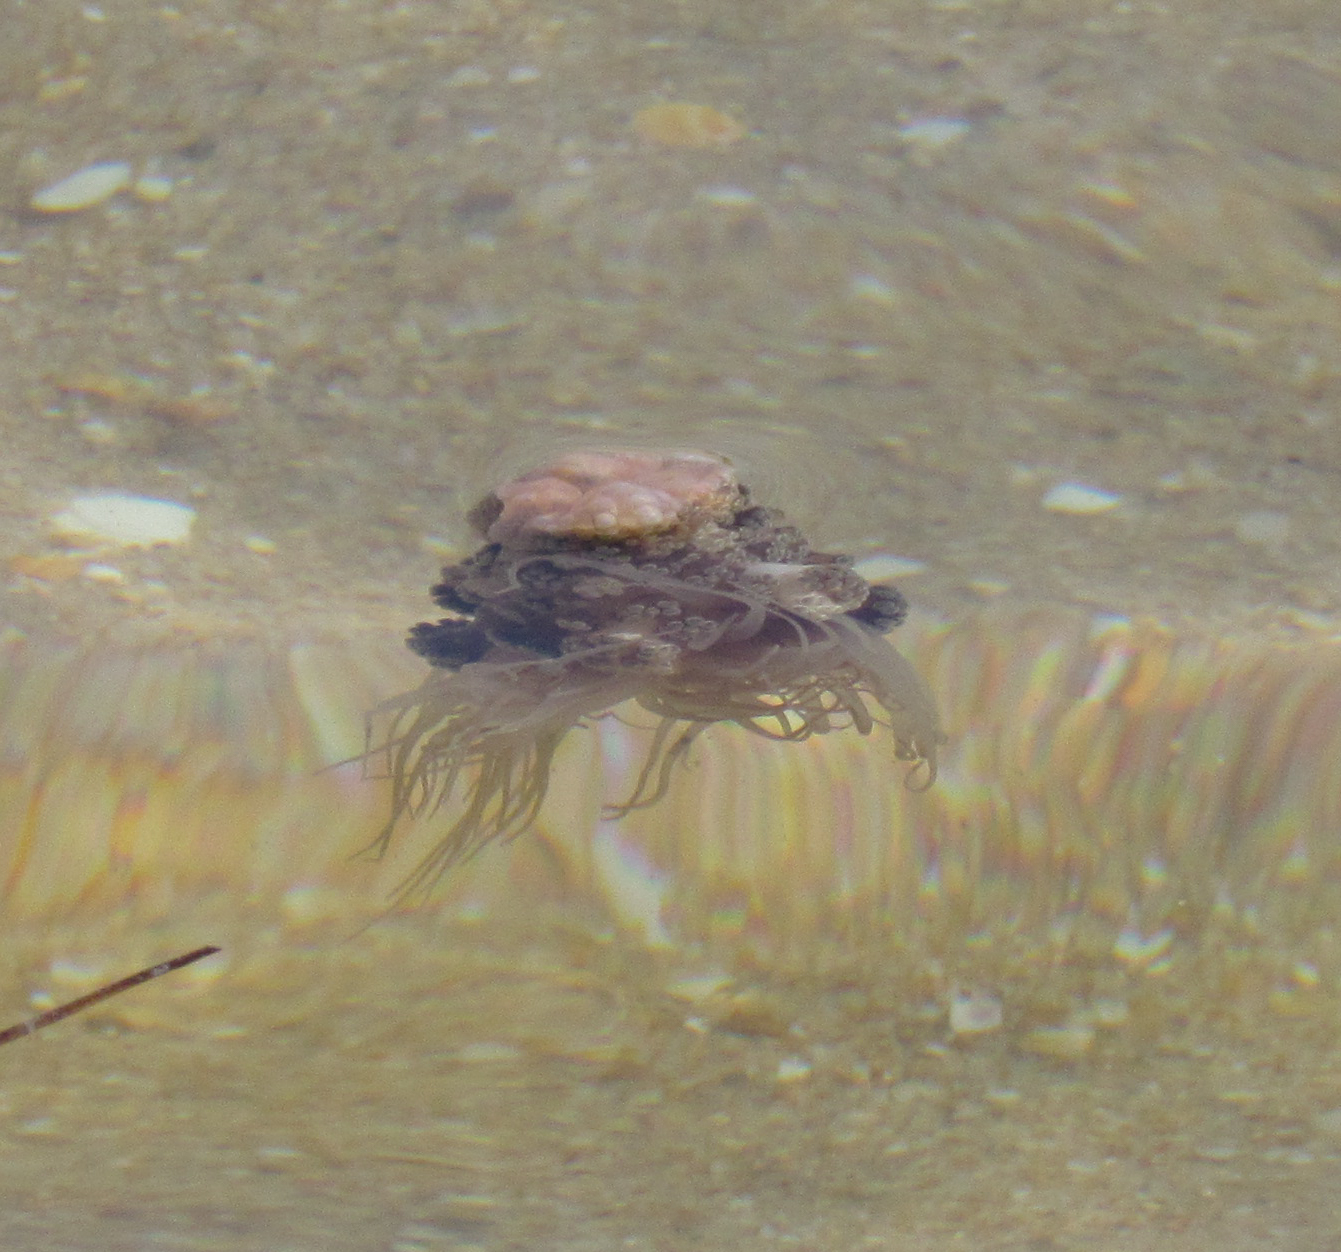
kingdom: Animalia
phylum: Cnidaria
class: Anthozoa
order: Actiniaria
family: Aliciidae
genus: Alicia
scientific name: Alicia mirabilis
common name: Berried anemone
